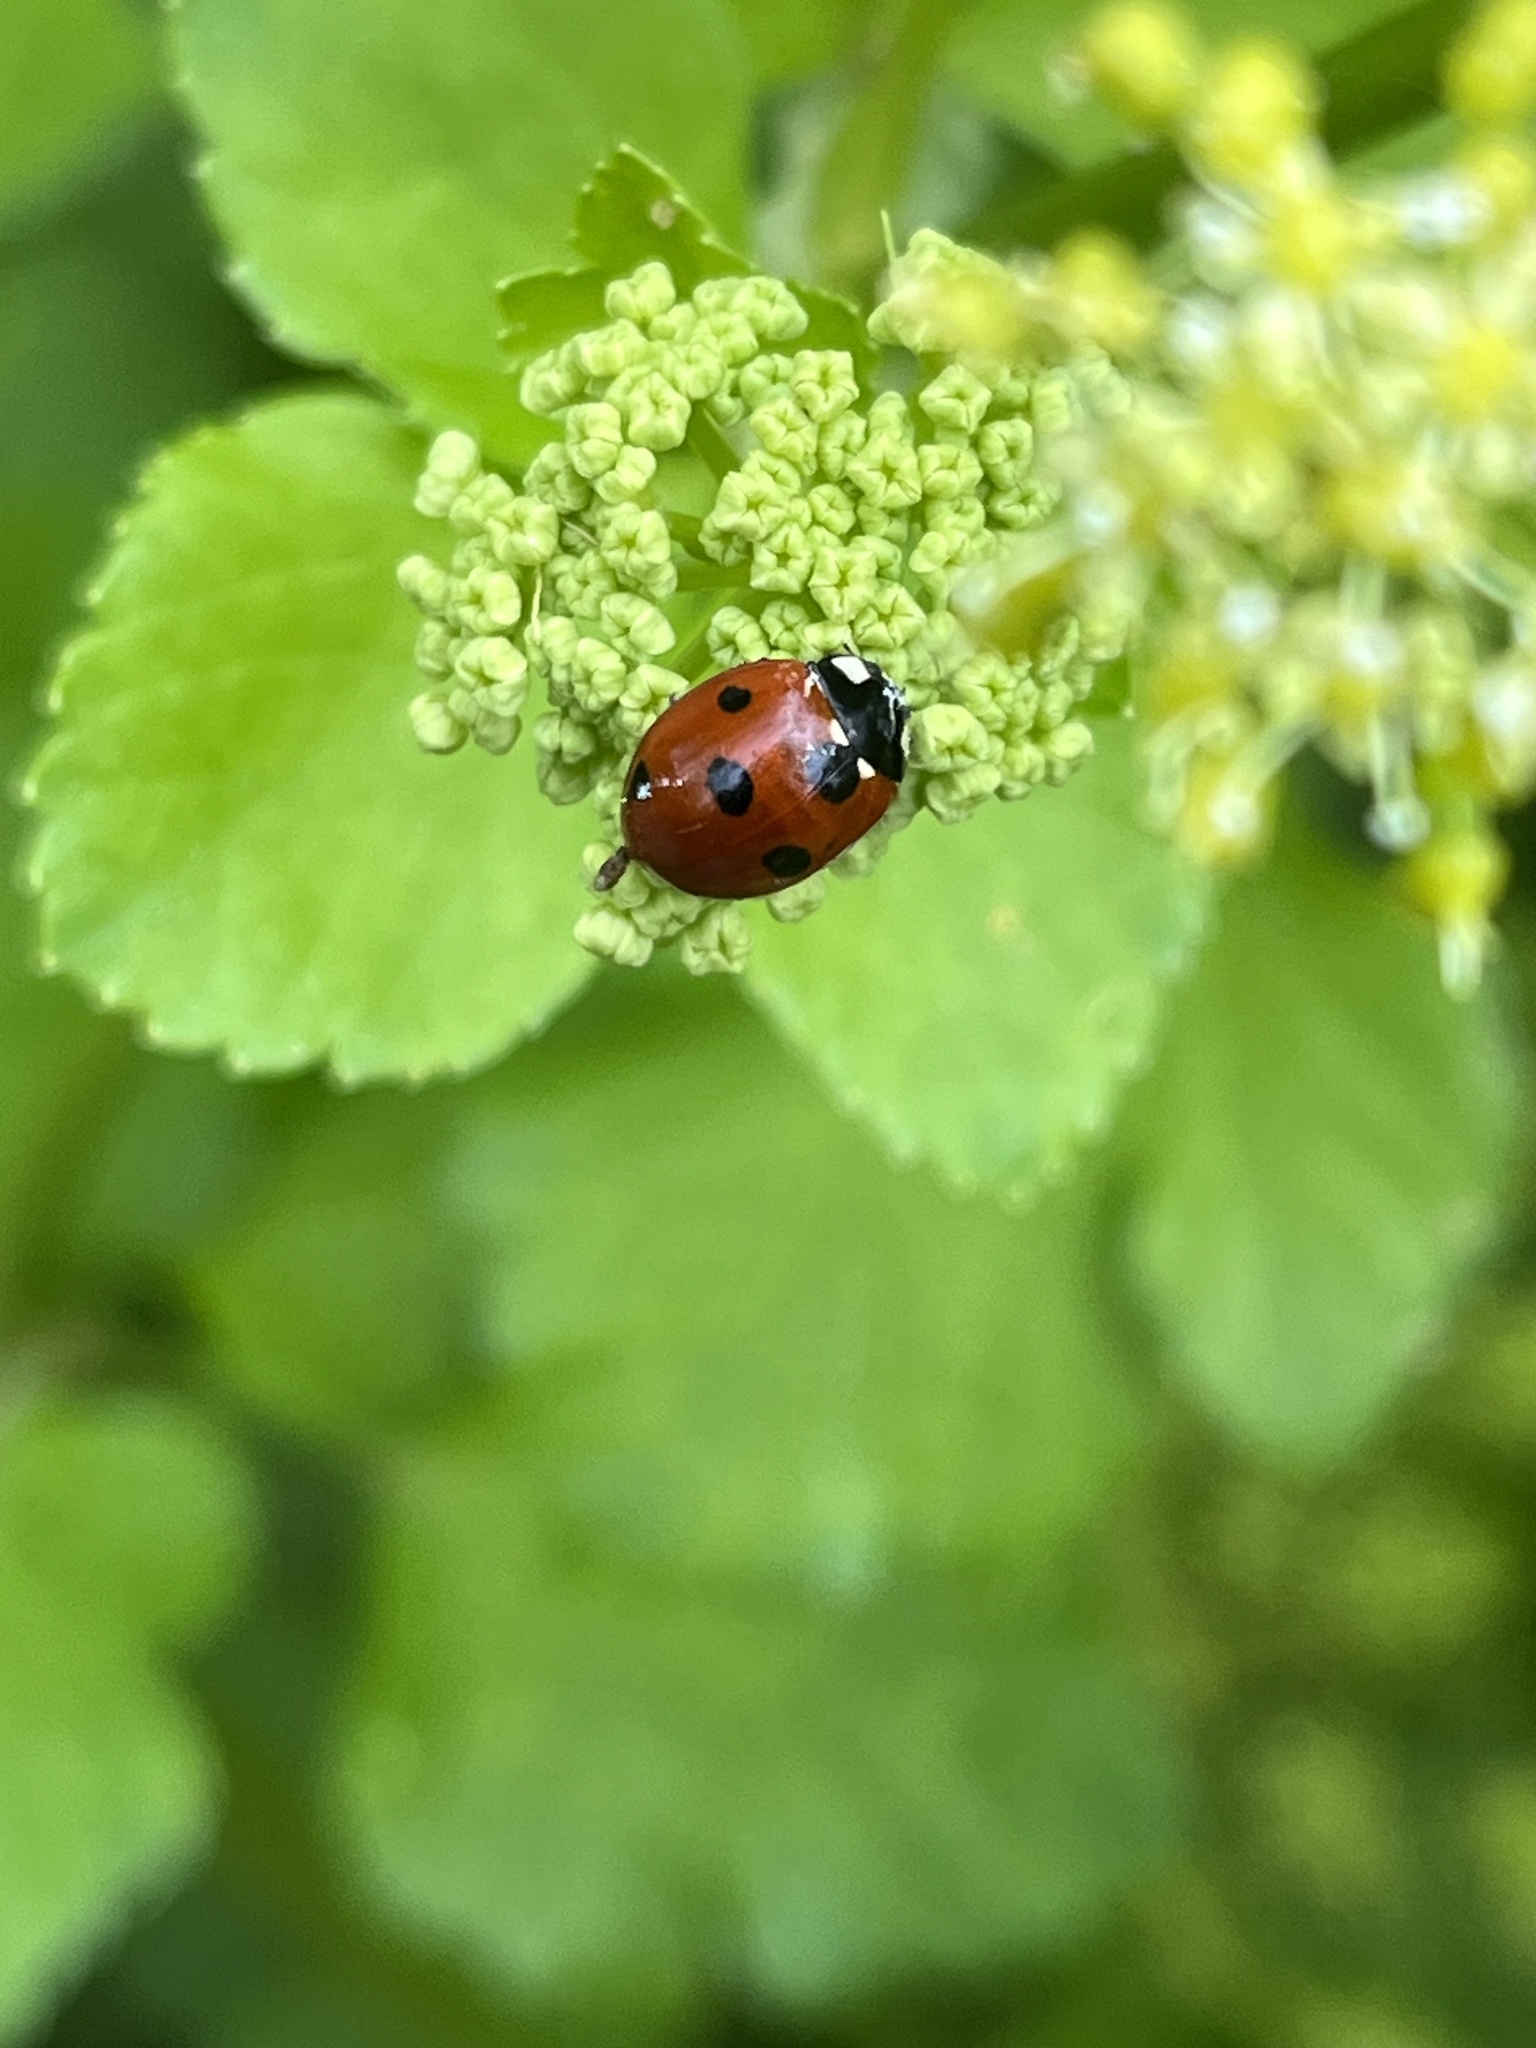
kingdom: Animalia
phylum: Arthropoda
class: Insecta
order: Coleoptera
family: Coccinellidae
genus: Coccinella
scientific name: Coccinella septempunctata
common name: Sevenspotted lady beetle
